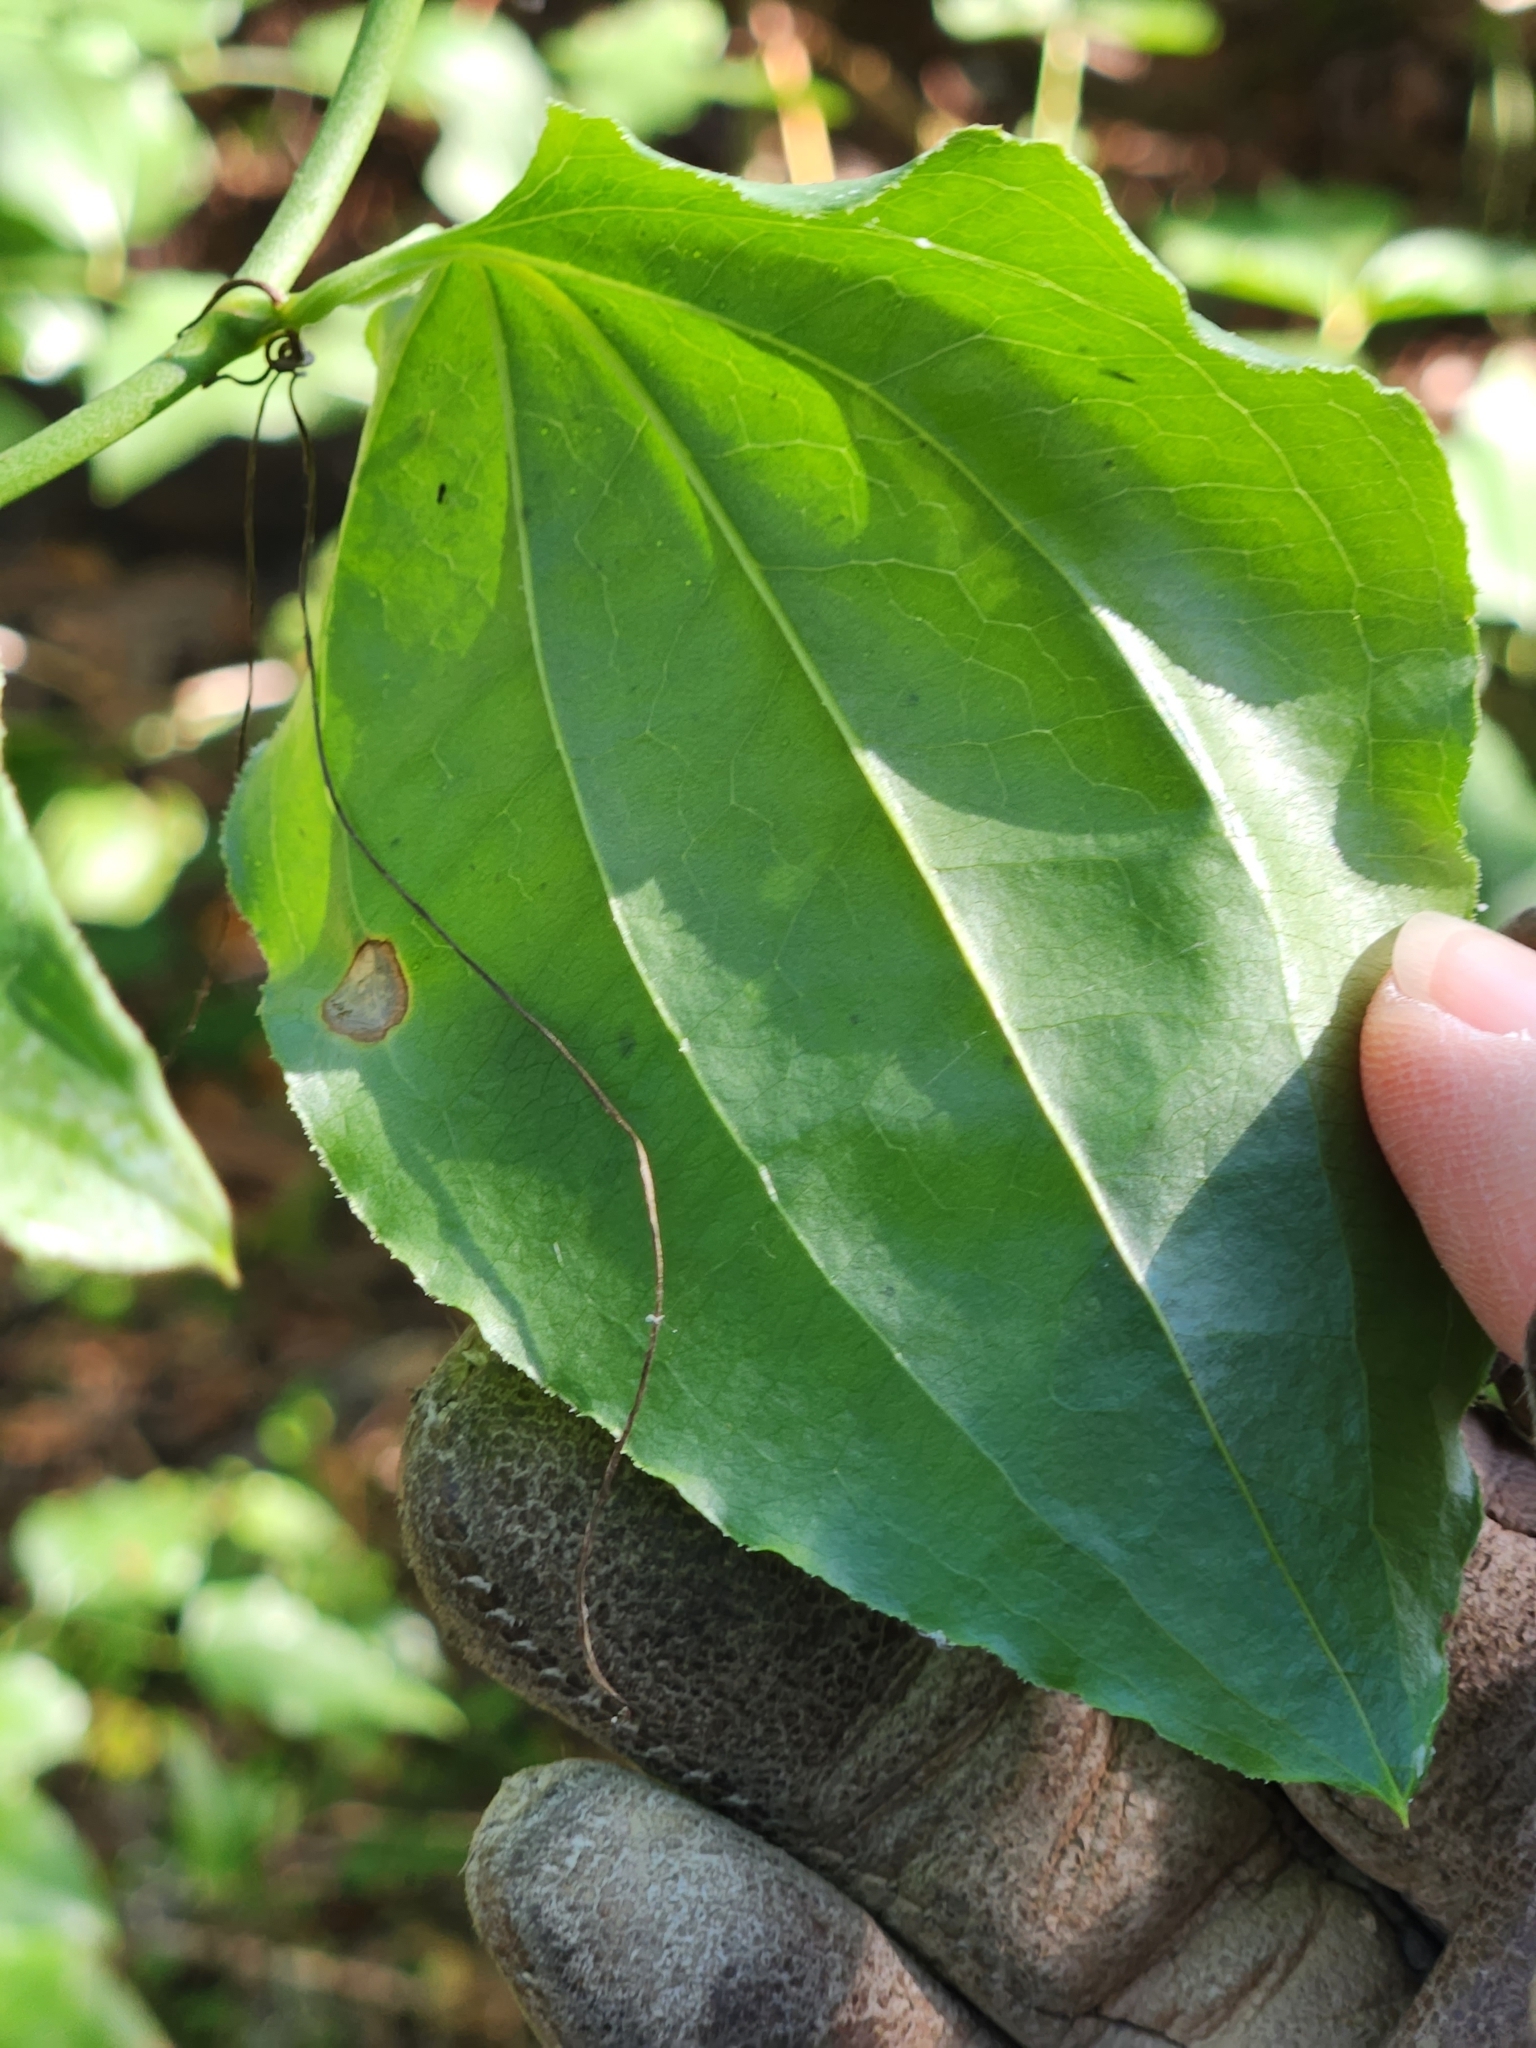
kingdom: Plantae
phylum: Tracheophyta
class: Liliopsida
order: Liliales
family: Smilacaceae
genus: Smilax
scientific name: Smilax tamnoides
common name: Hellfetter
